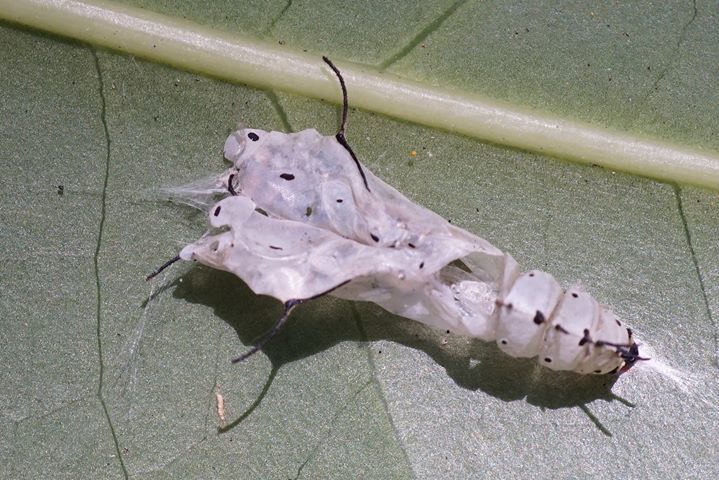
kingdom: Animalia
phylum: Arthropoda
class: Insecta
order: Lepidoptera
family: Nymphalidae
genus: Marpesia
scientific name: Marpesia petreus
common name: Red dagger wing
